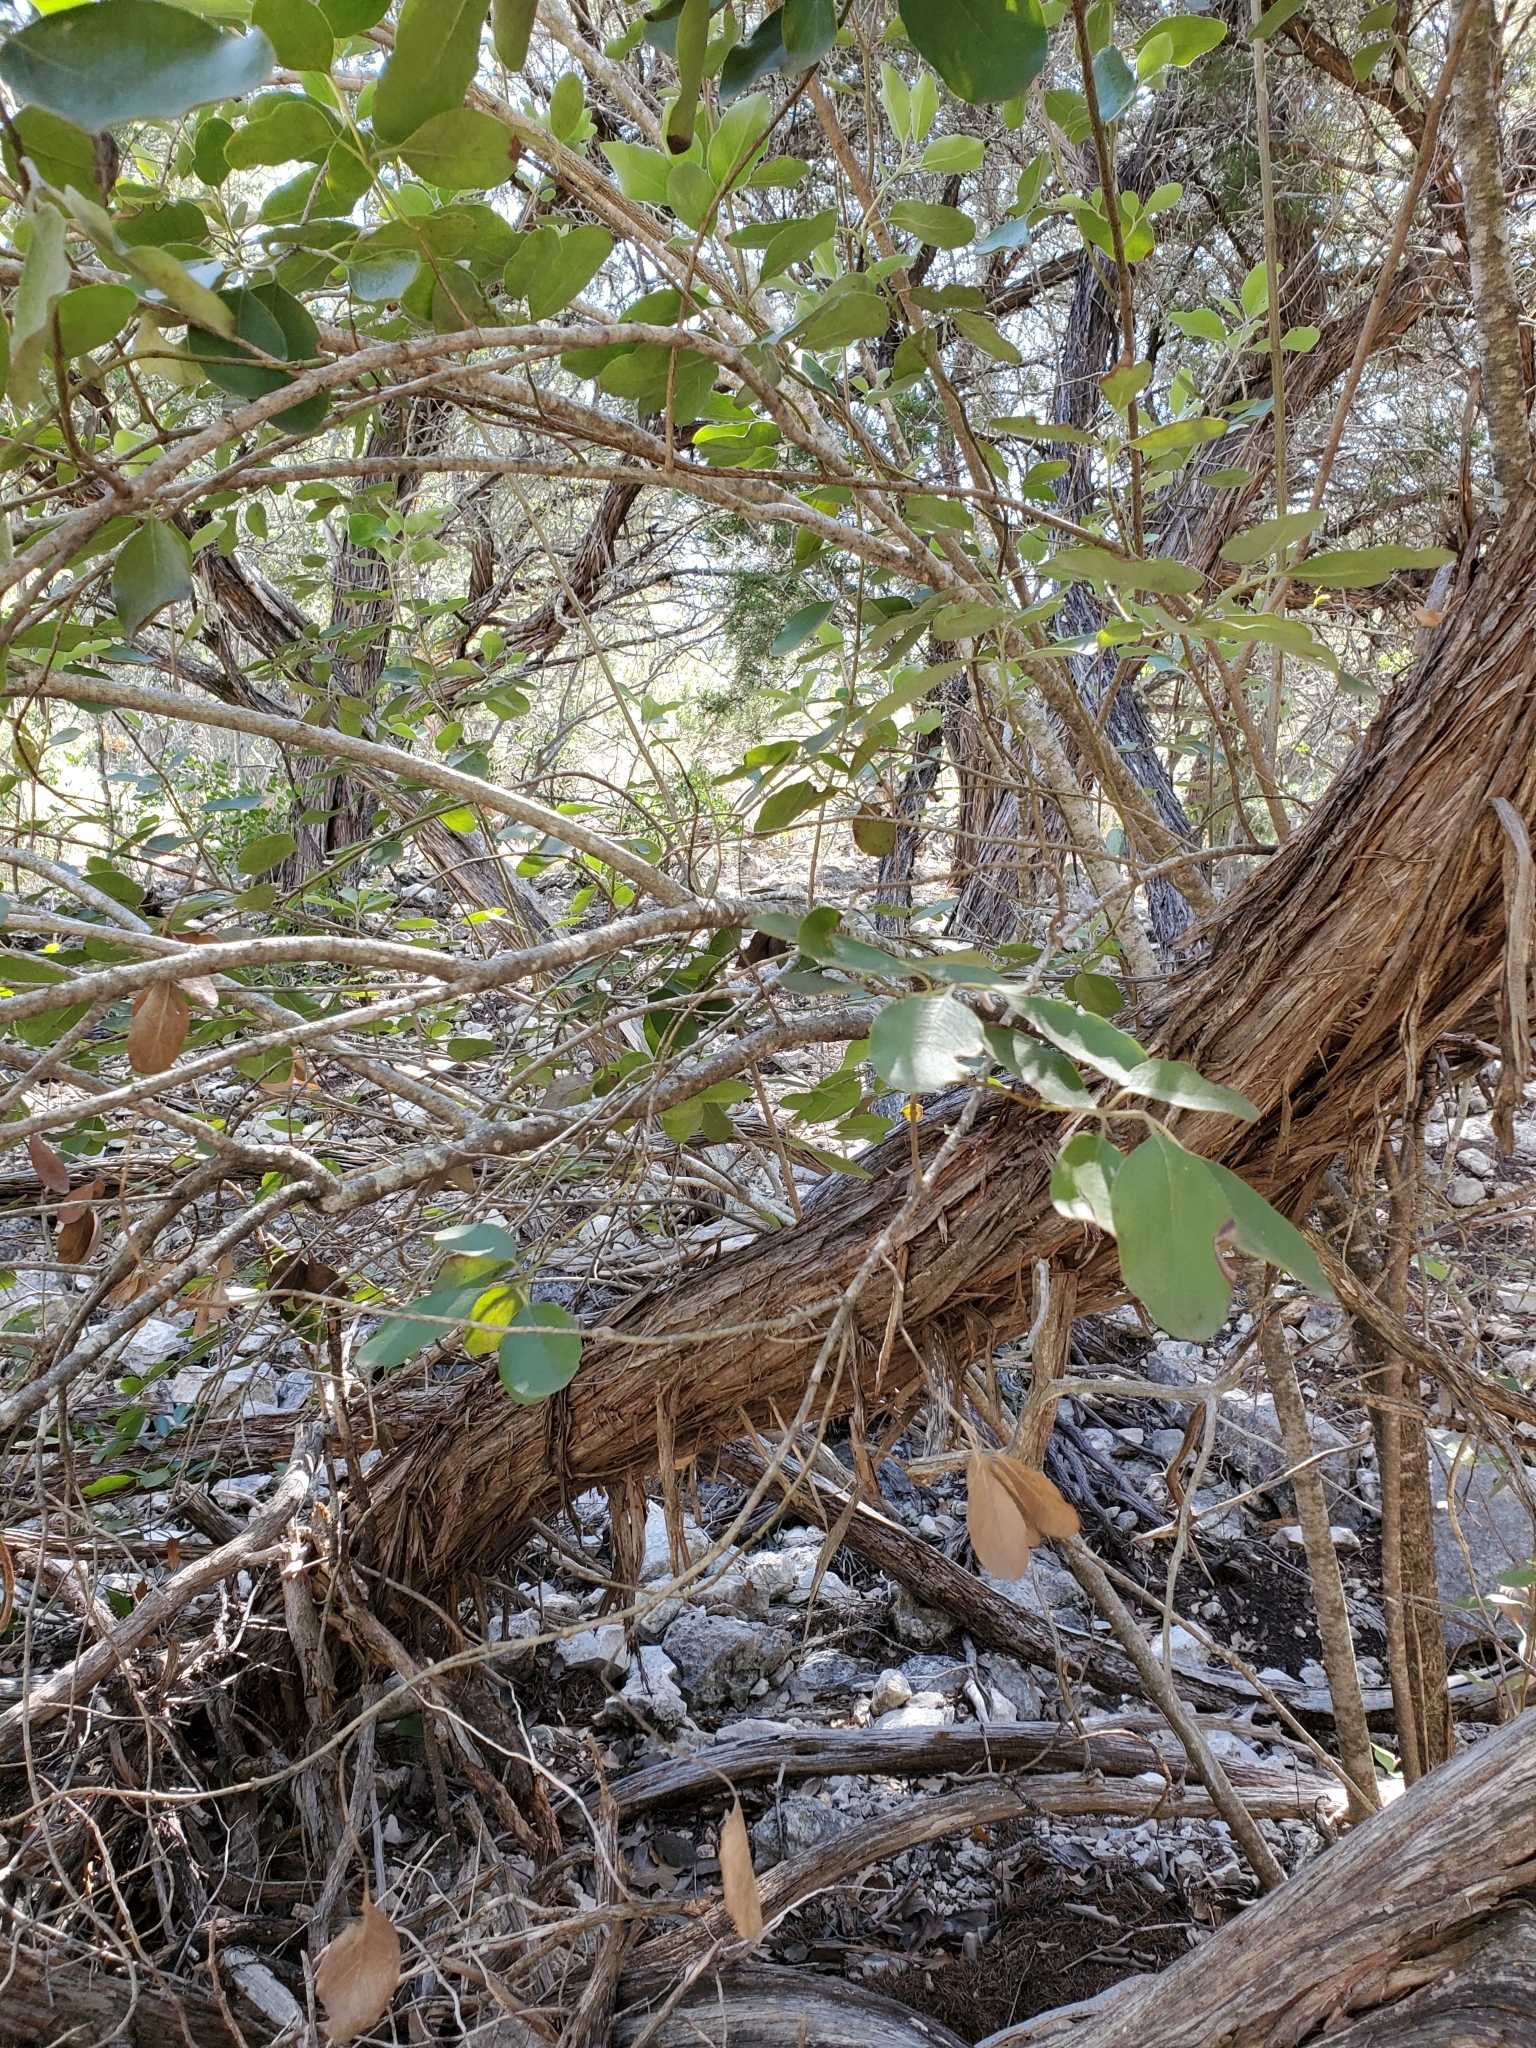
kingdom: Plantae
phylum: Tracheophyta
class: Magnoliopsida
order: Garryales
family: Garryaceae
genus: Garrya
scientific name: Garrya lindheimeri
